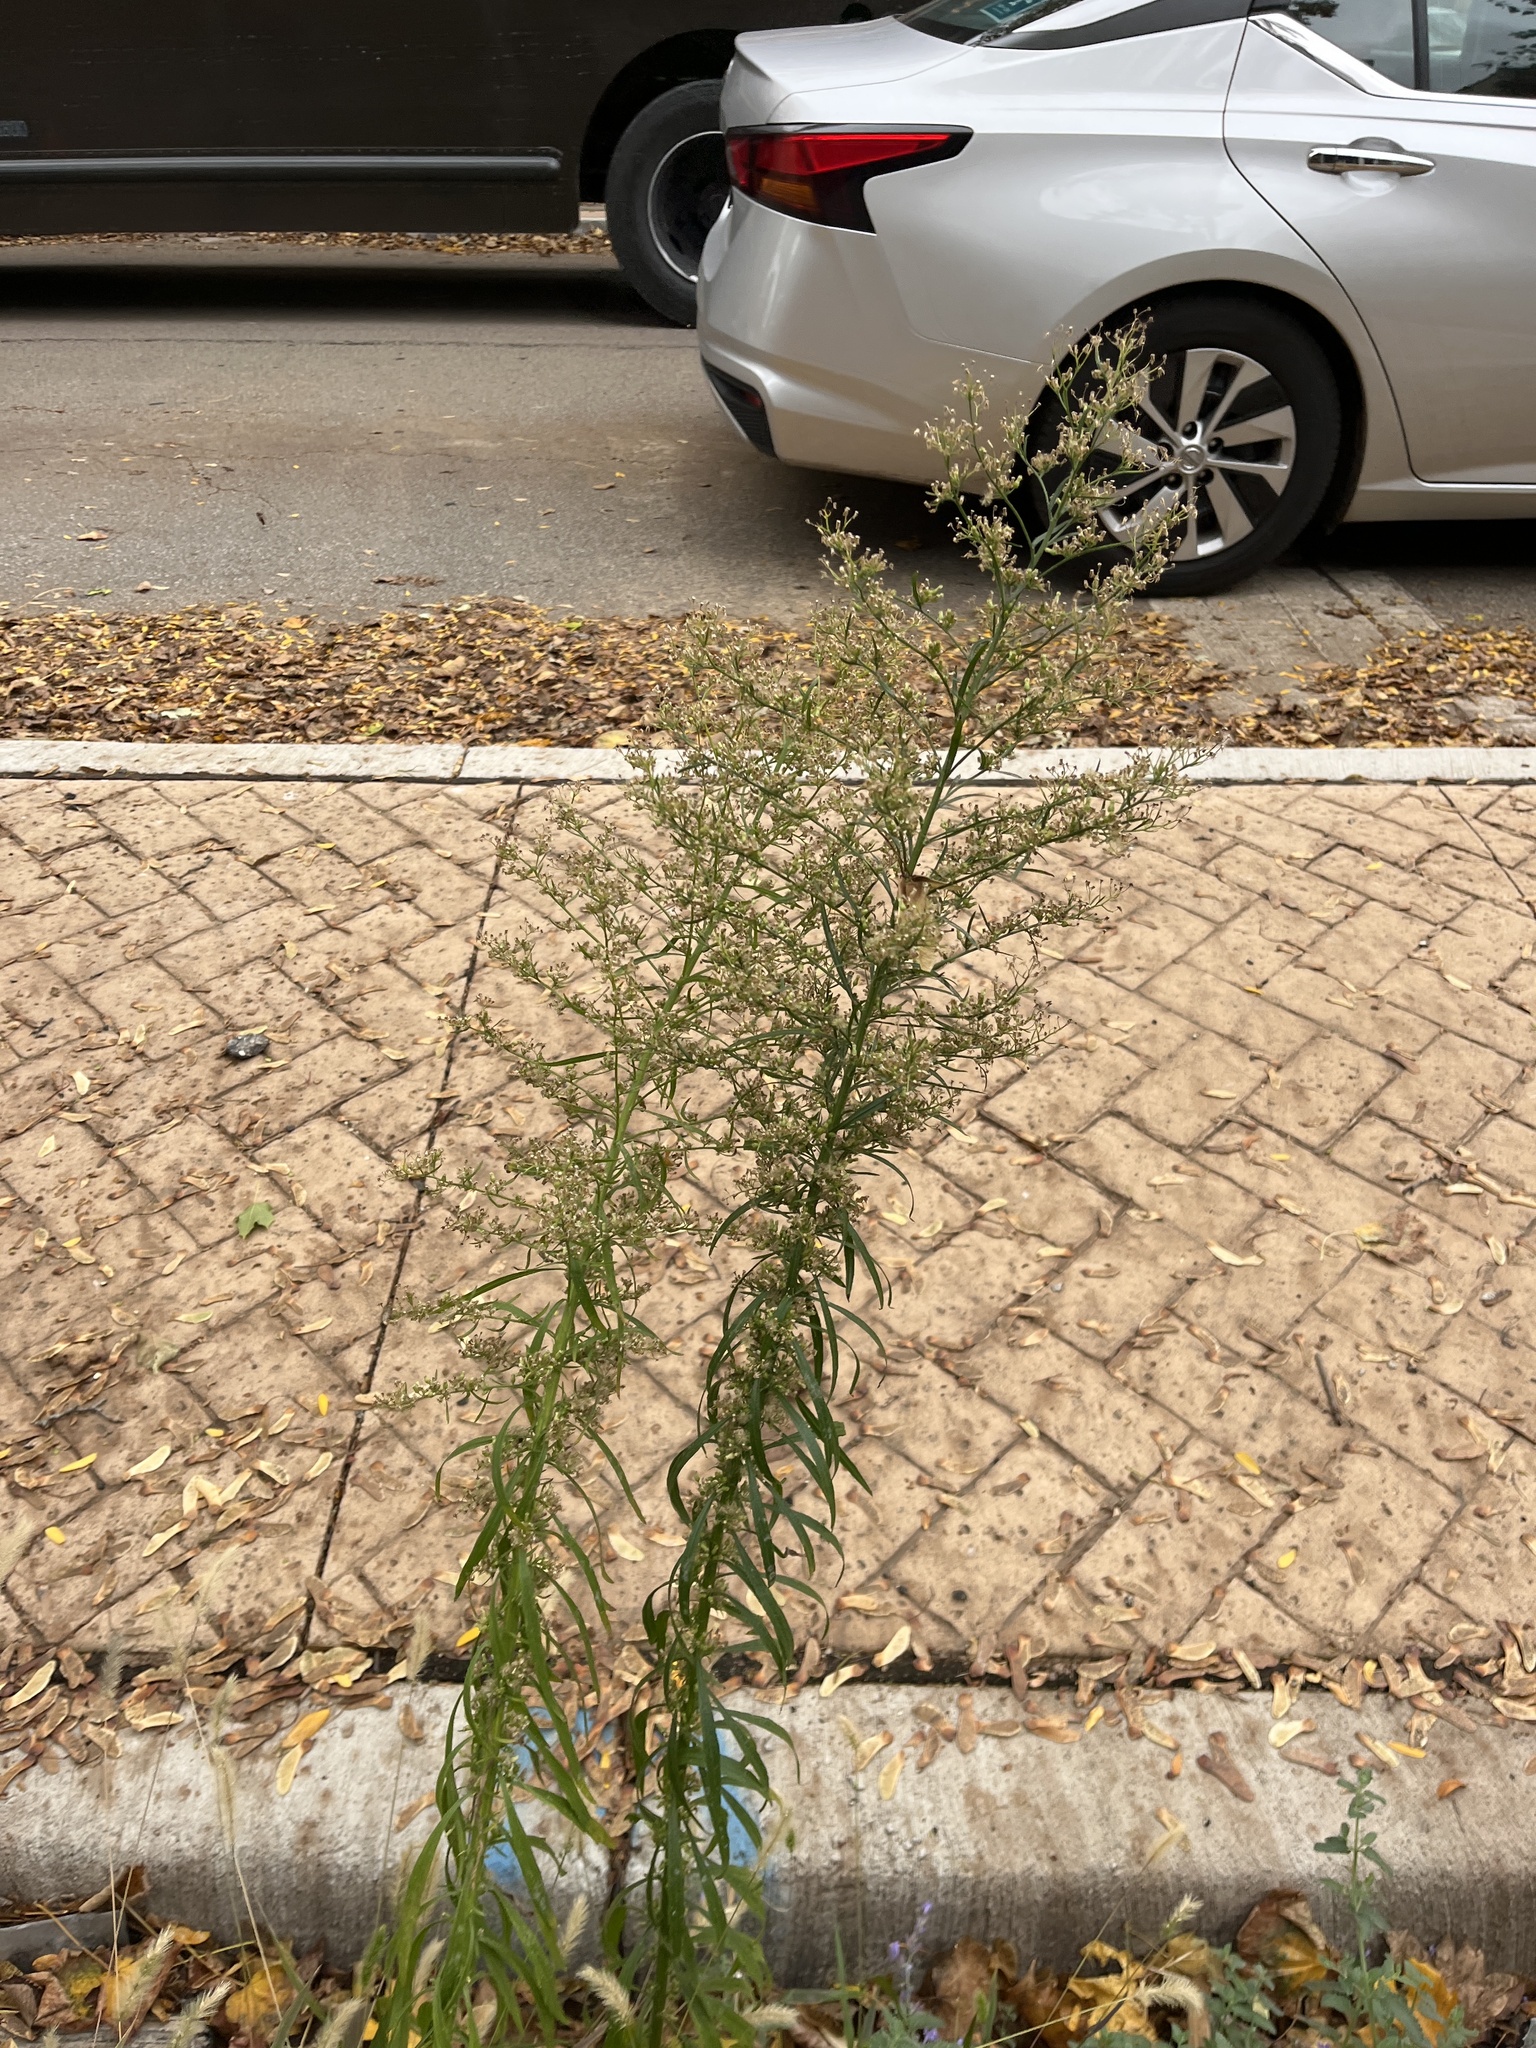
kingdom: Plantae
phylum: Tracheophyta
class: Magnoliopsida
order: Asterales
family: Asteraceae
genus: Erigeron
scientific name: Erigeron canadensis
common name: Canadian fleabane
